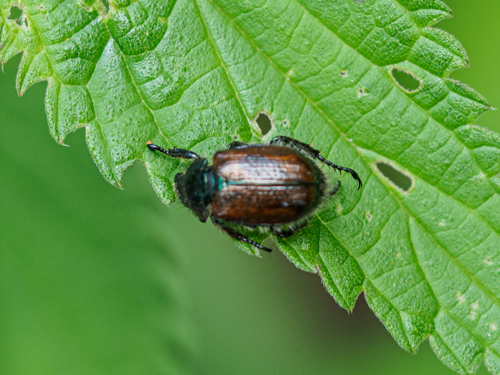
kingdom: Animalia
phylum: Arthropoda
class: Insecta
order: Coleoptera
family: Scarabaeidae
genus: Phyllopertha
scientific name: Phyllopertha horticola
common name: Garden chafer
